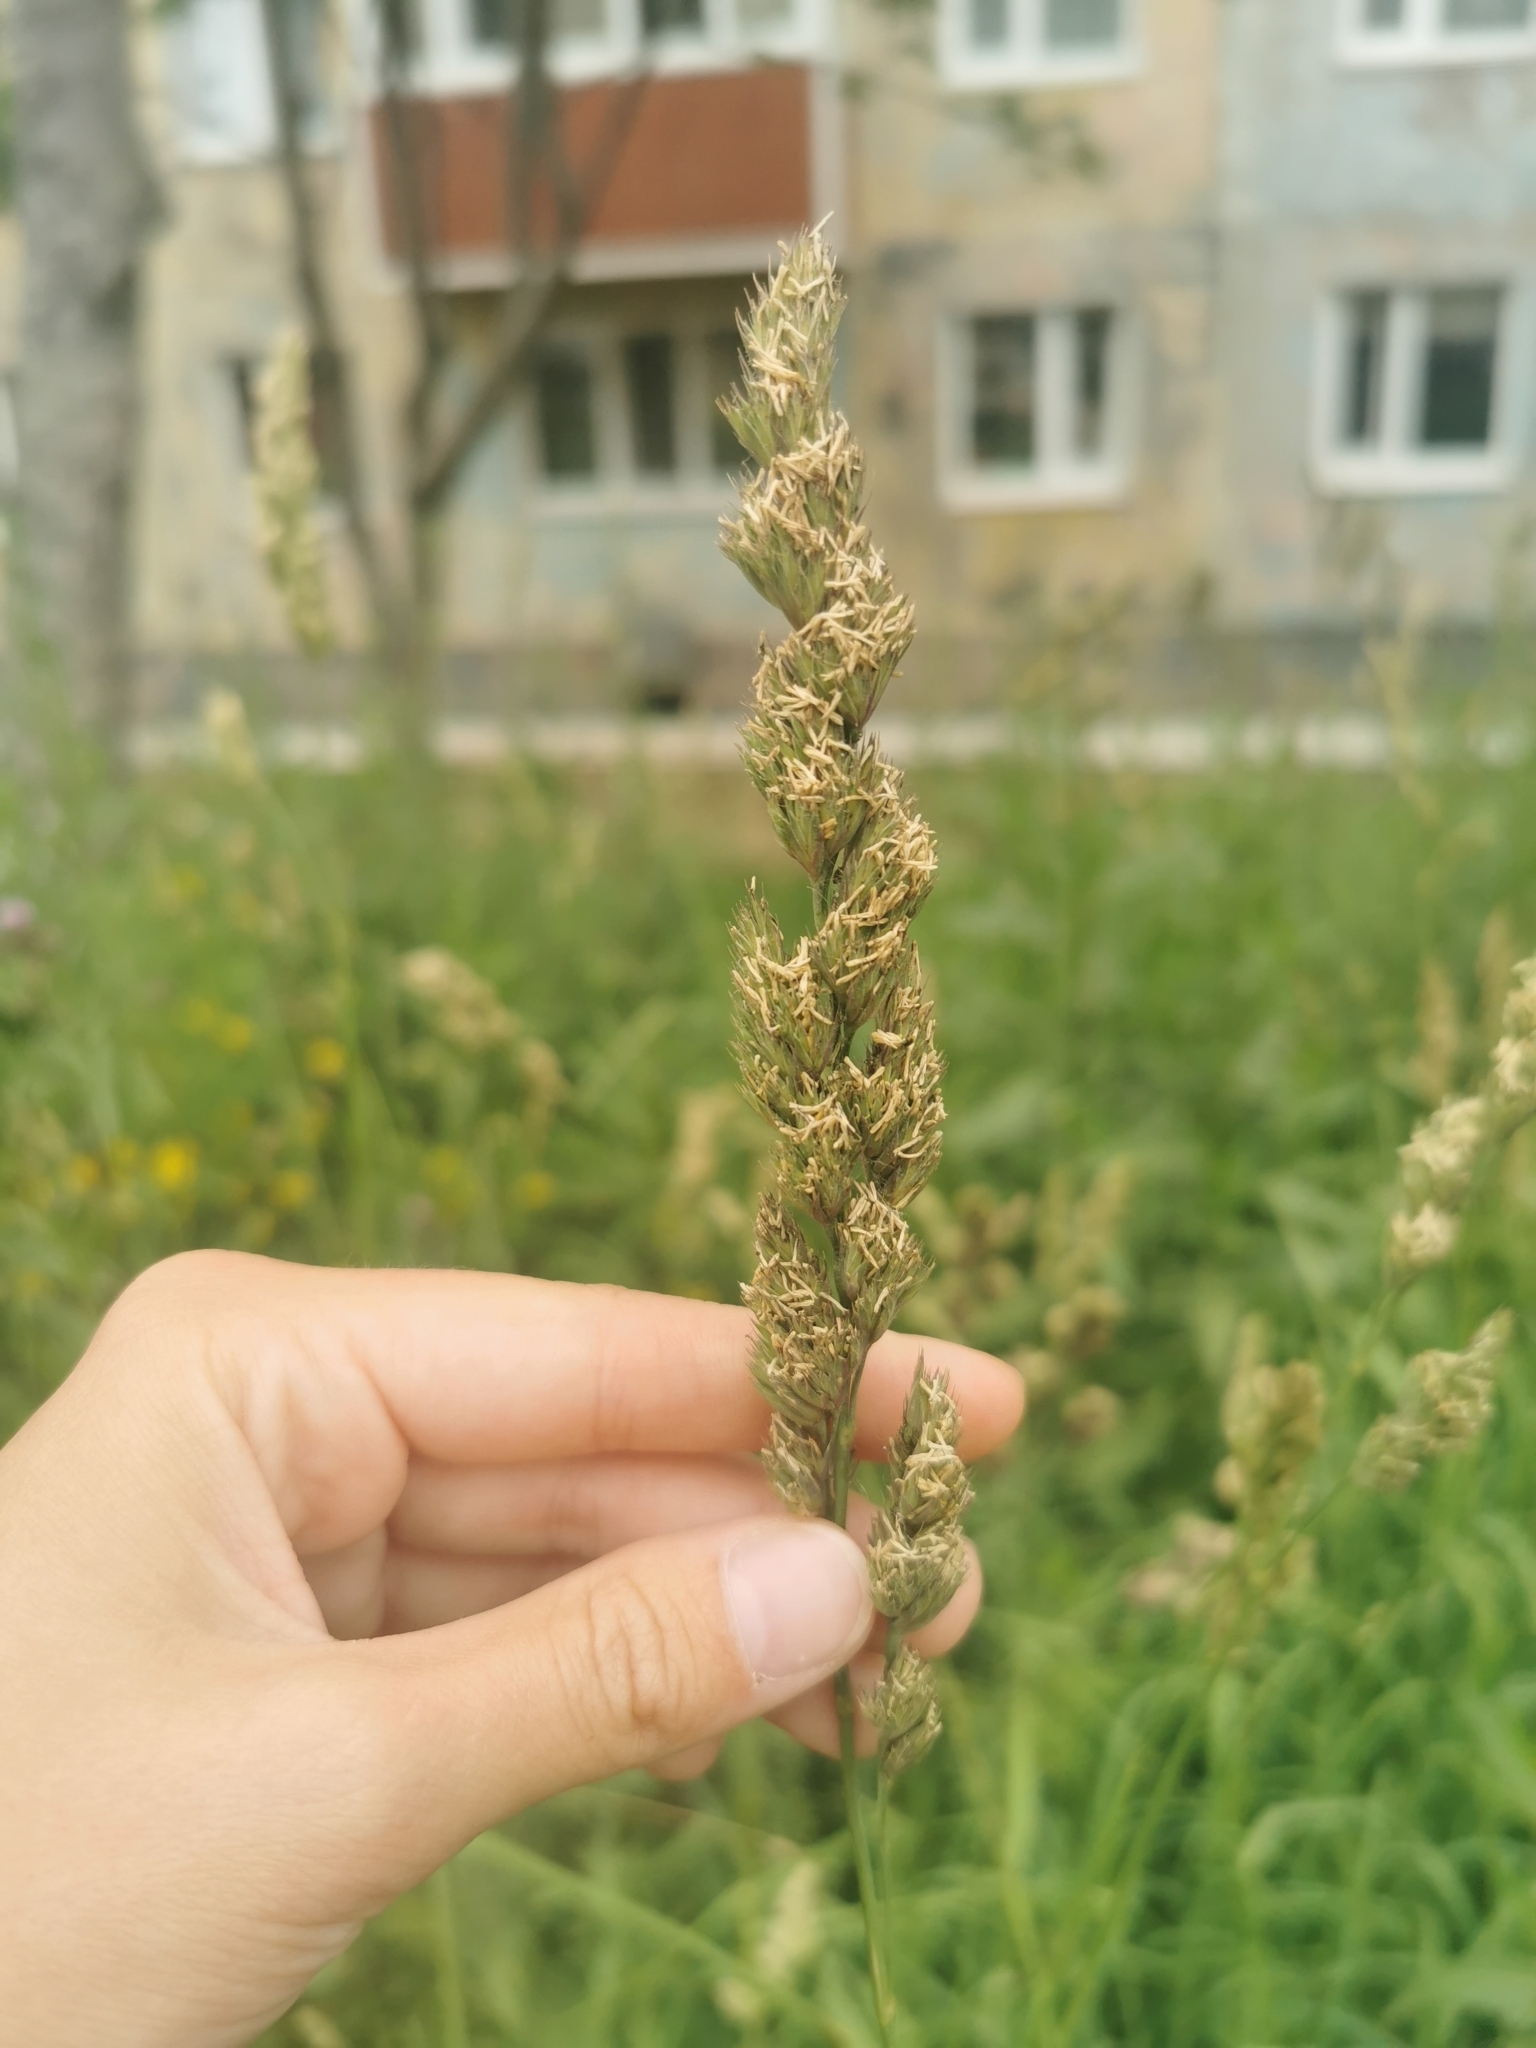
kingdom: Plantae
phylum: Tracheophyta
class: Liliopsida
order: Poales
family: Poaceae
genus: Dactylis
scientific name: Dactylis glomerata
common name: Orchardgrass
